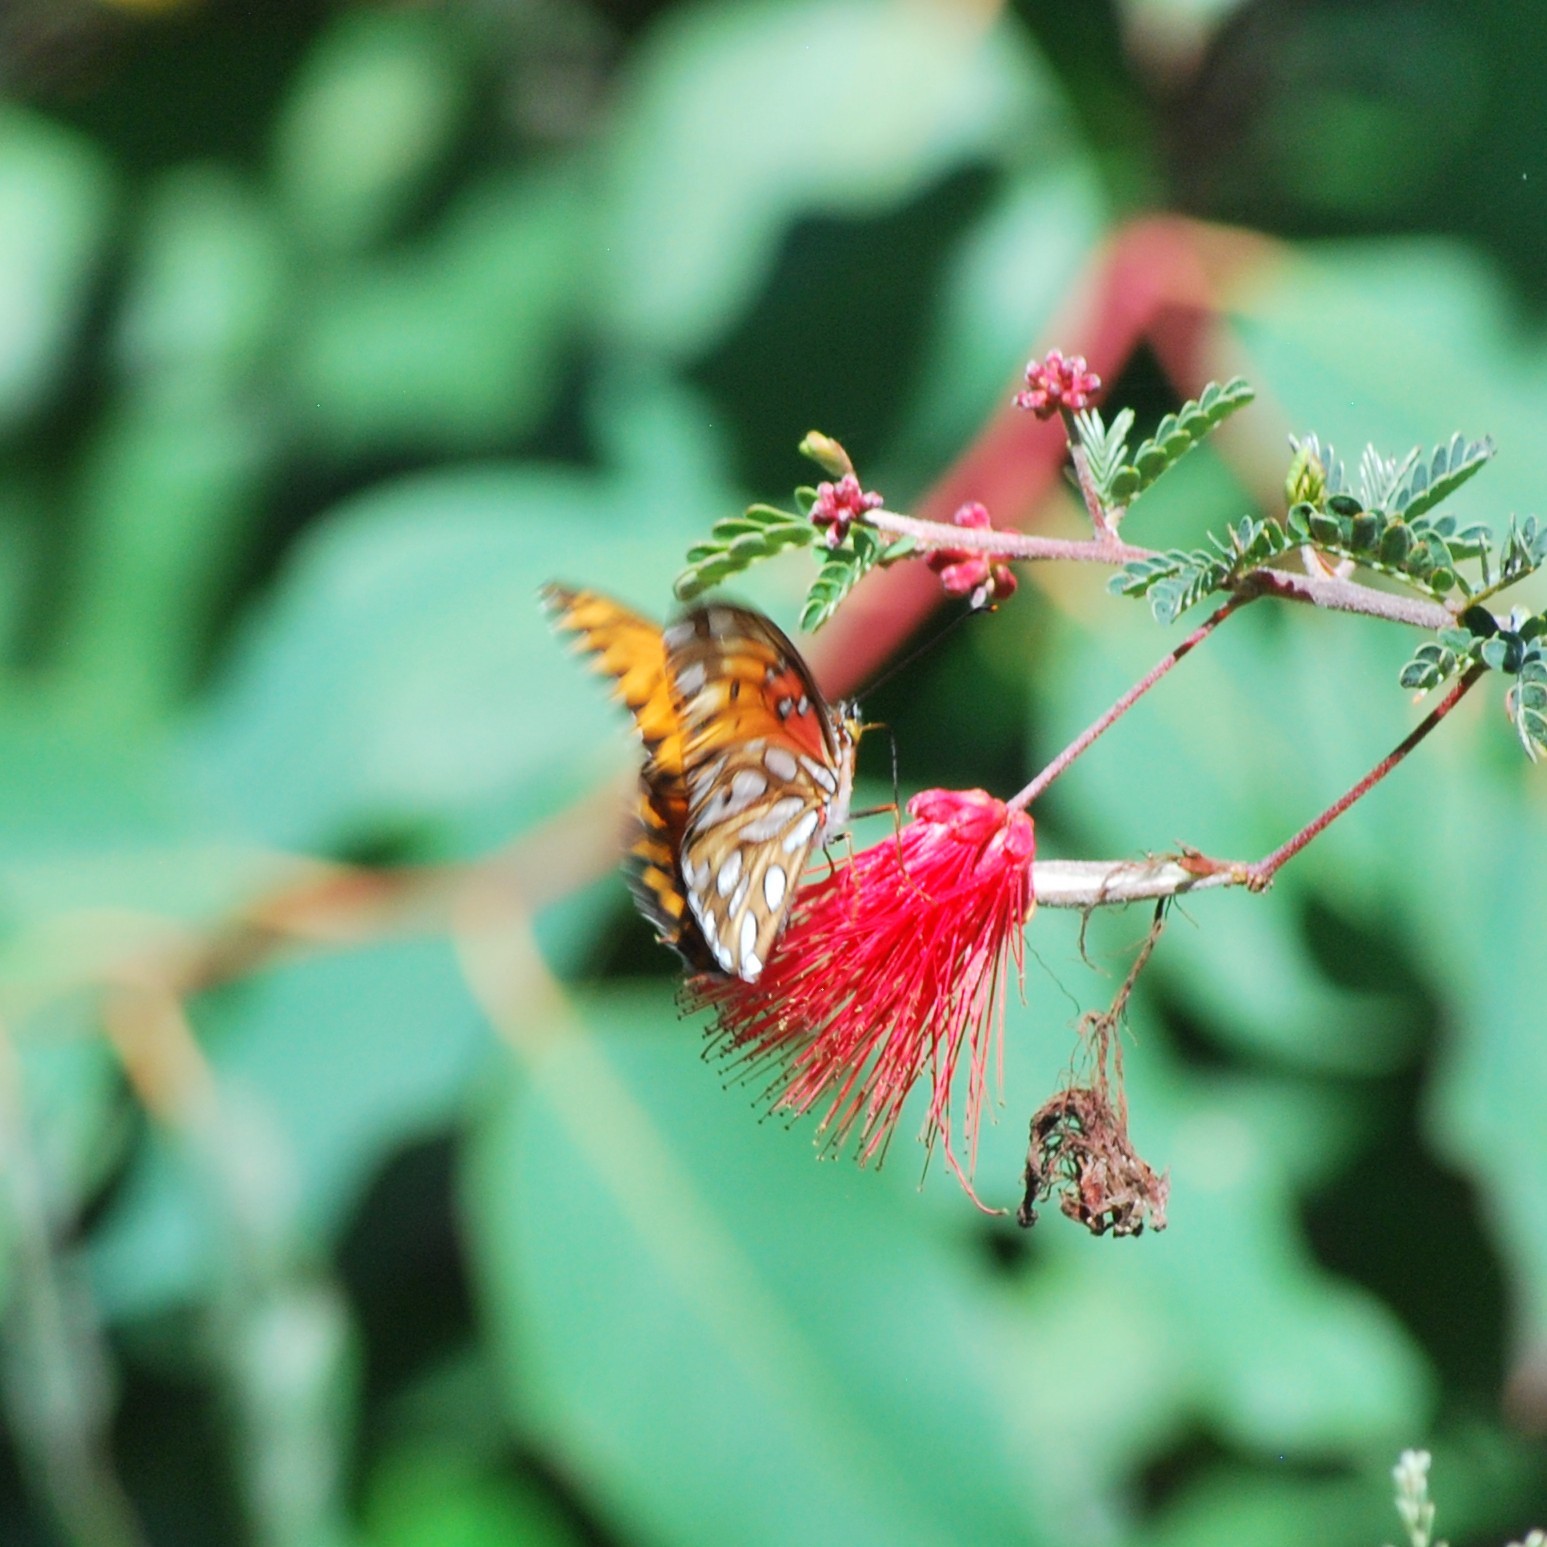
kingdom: Animalia
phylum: Arthropoda
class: Insecta
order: Lepidoptera
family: Nymphalidae
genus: Dione
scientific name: Dione vanillae
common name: Gulf fritillary
